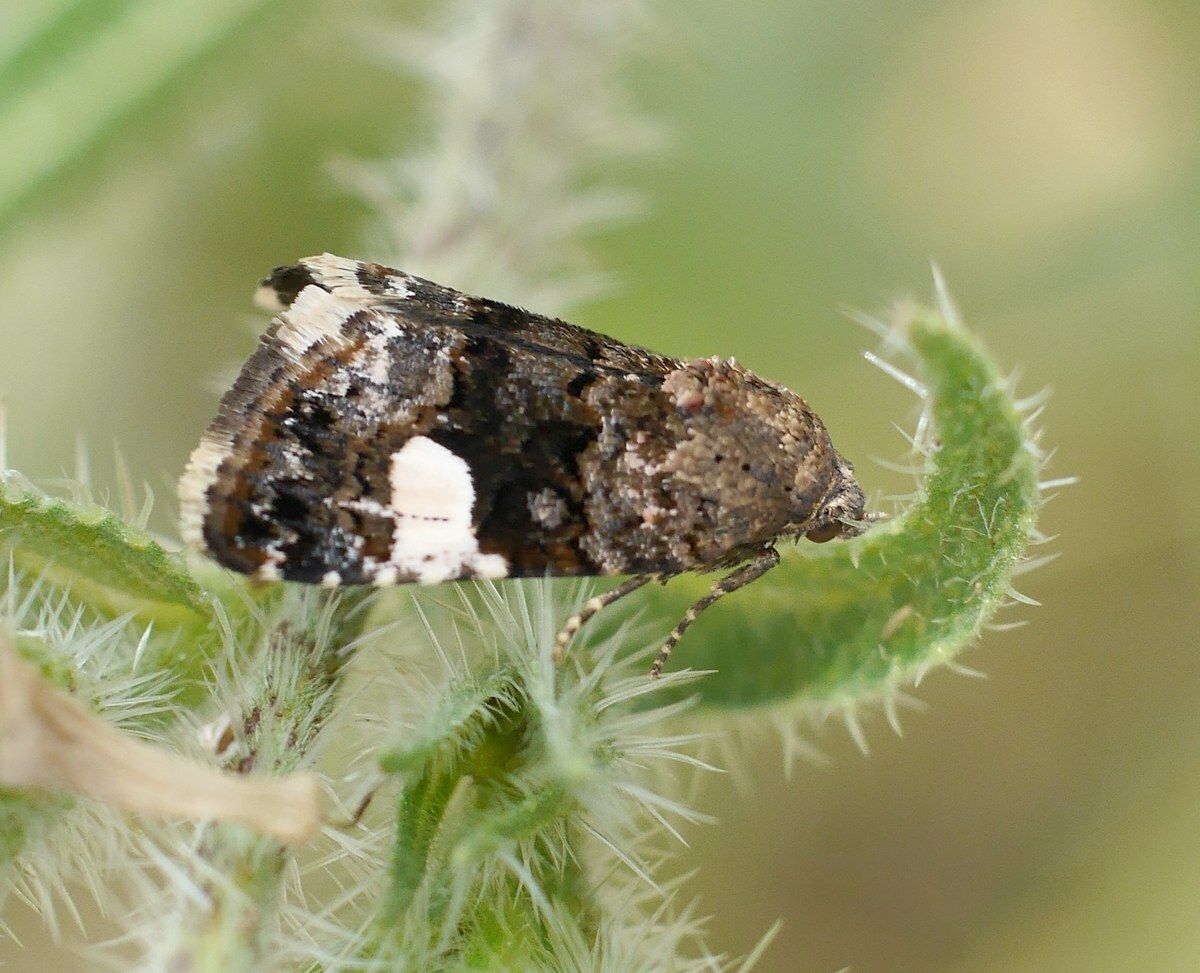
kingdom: Animalia
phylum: Arthropoda
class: Insecta
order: Lepidoptera
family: Erebidae
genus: Tyta
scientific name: Tyta luctuosa
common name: Four-spotted
